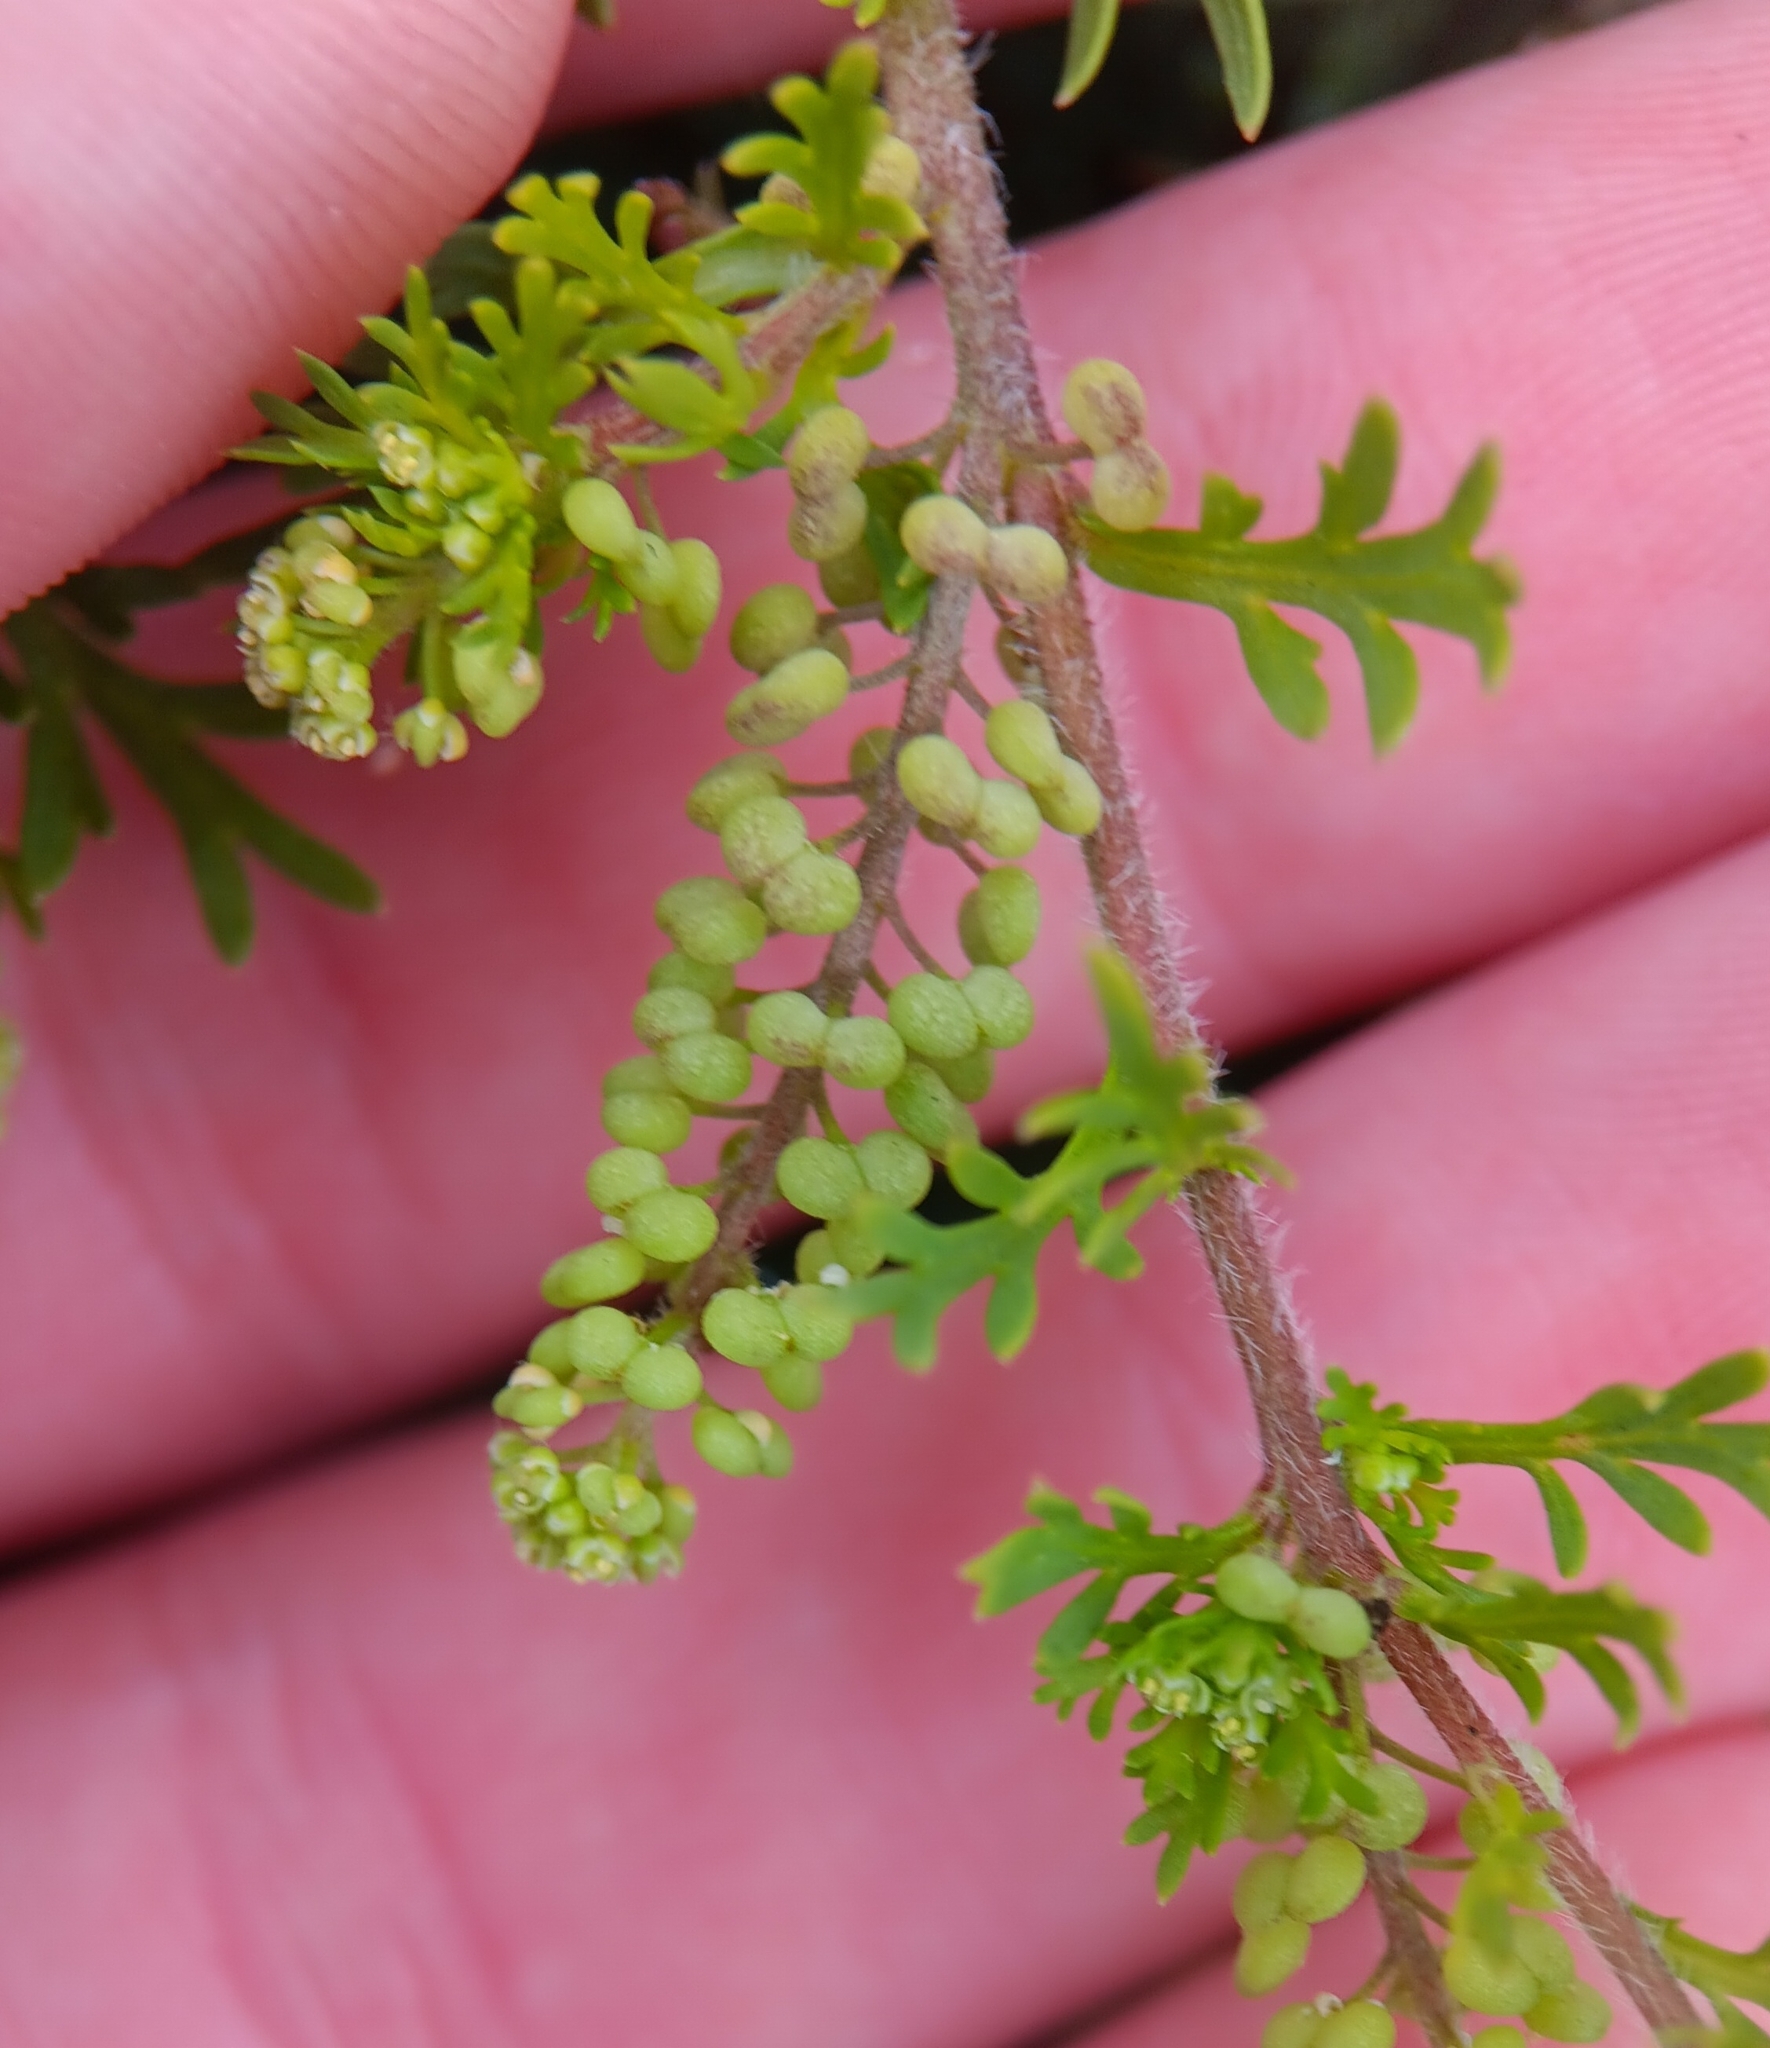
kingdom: Plantae
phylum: Tracheophyta
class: Magnoliopsida
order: Brassicales
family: Brassicaceae
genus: Lepidium
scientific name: Lepidium didymum
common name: Lesser swinecress
